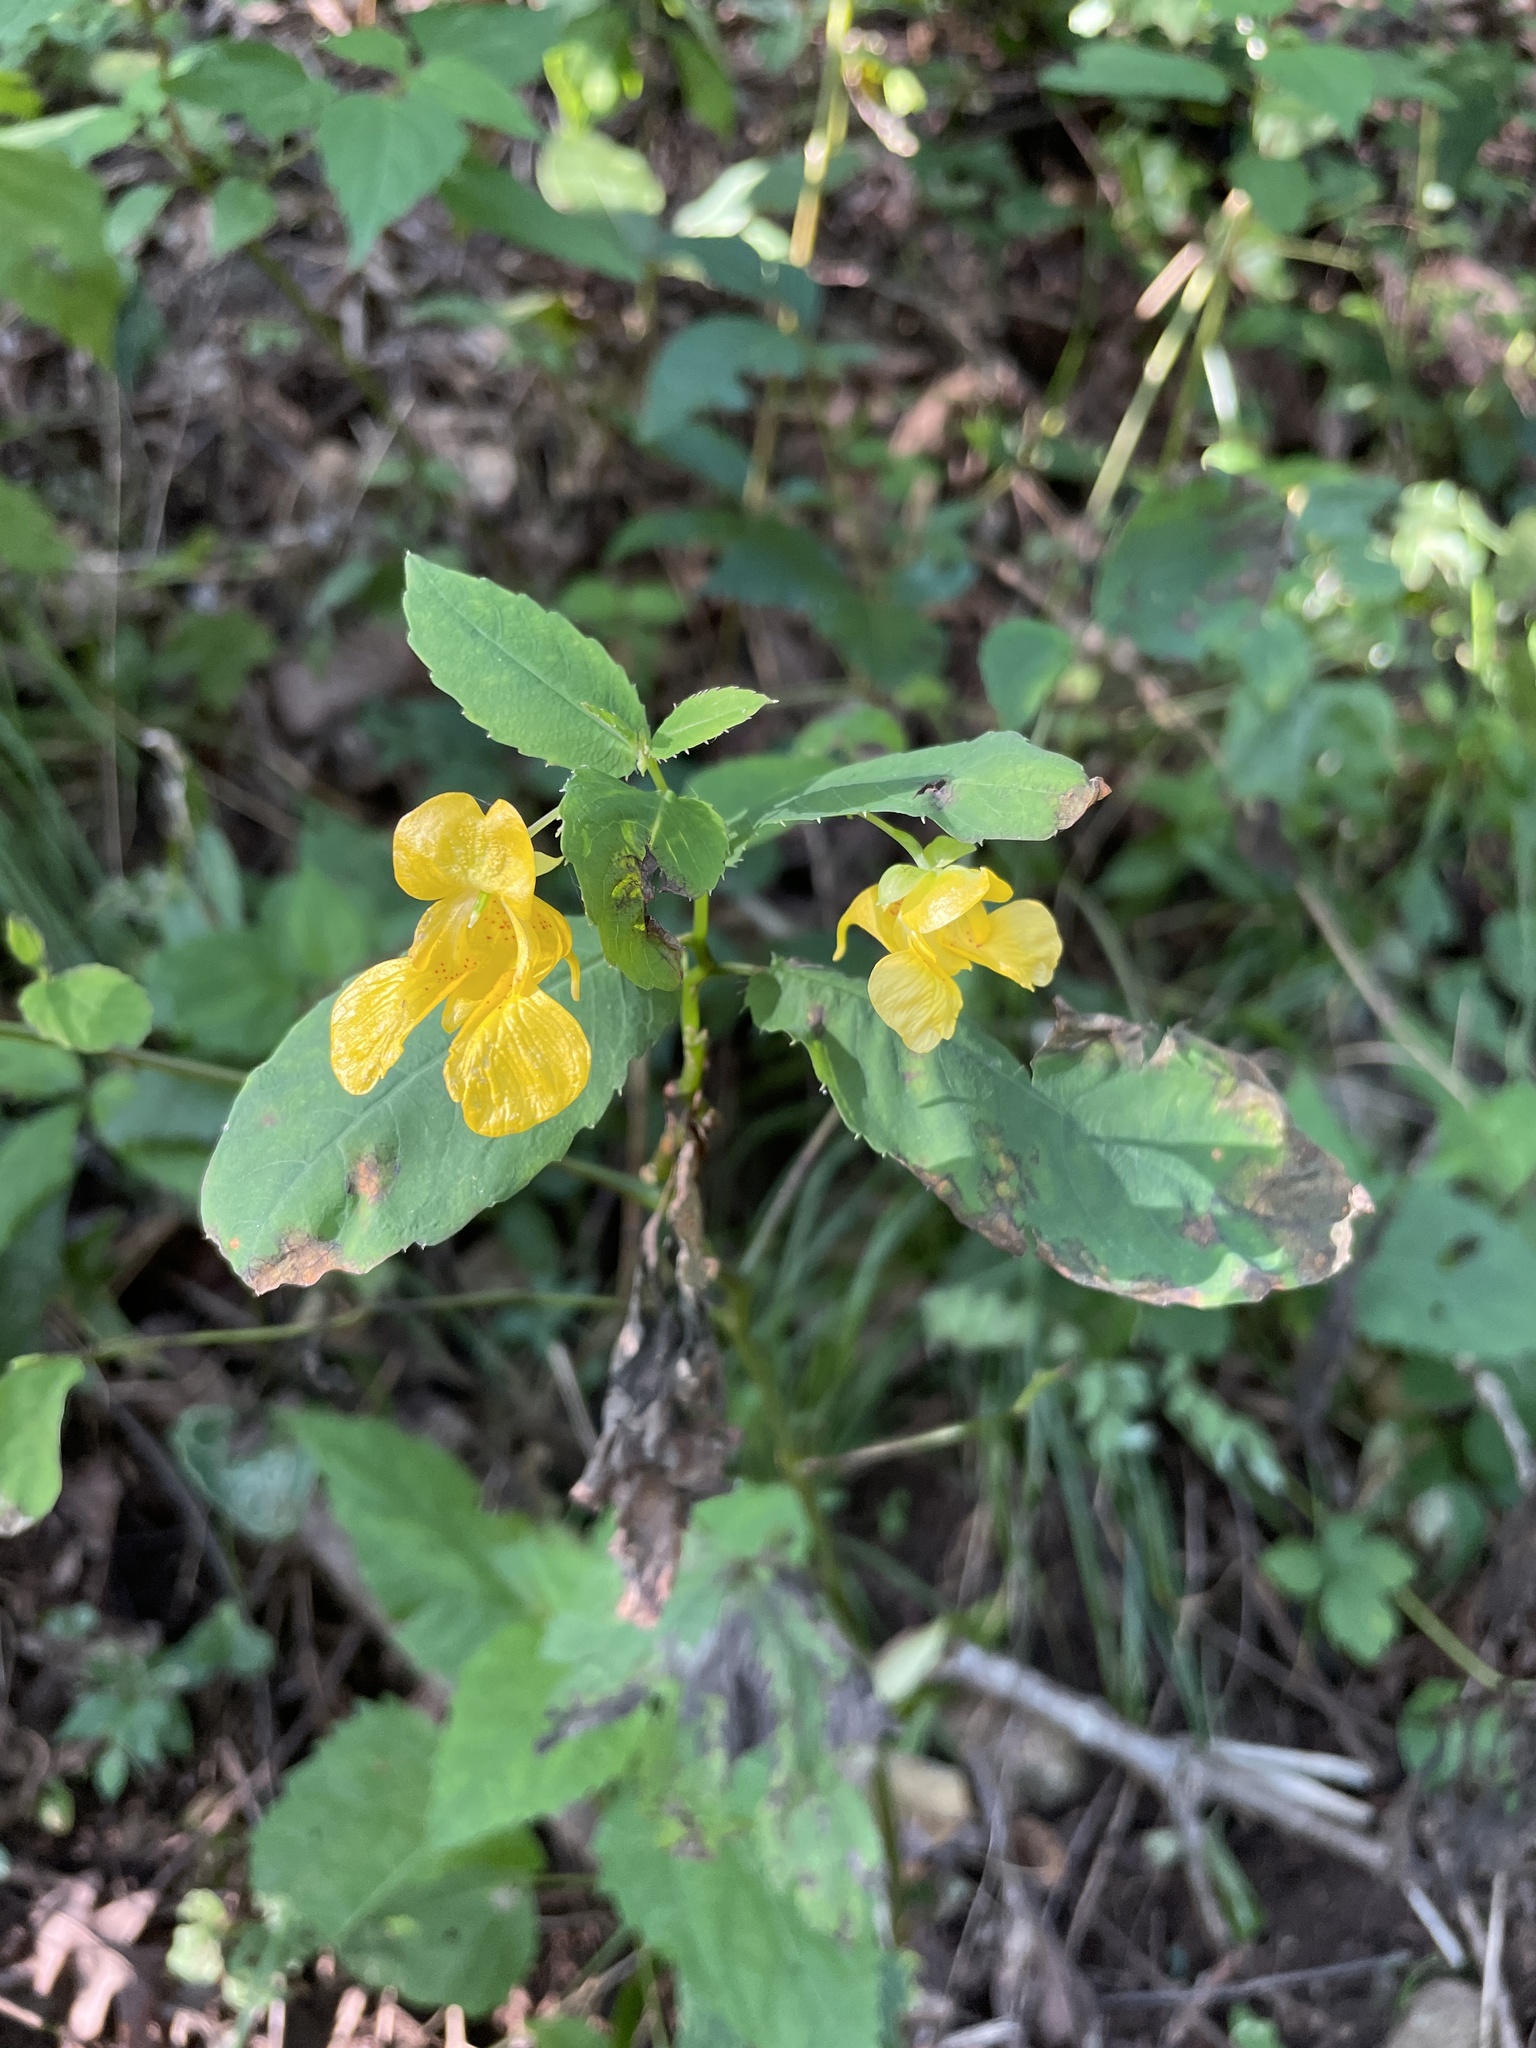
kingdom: Plantae
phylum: Tracheophyta
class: Magnoliopsida
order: Ericales
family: Balsaminaceae
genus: Impatiens
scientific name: Impatiens pallida
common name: Pale snapweed
